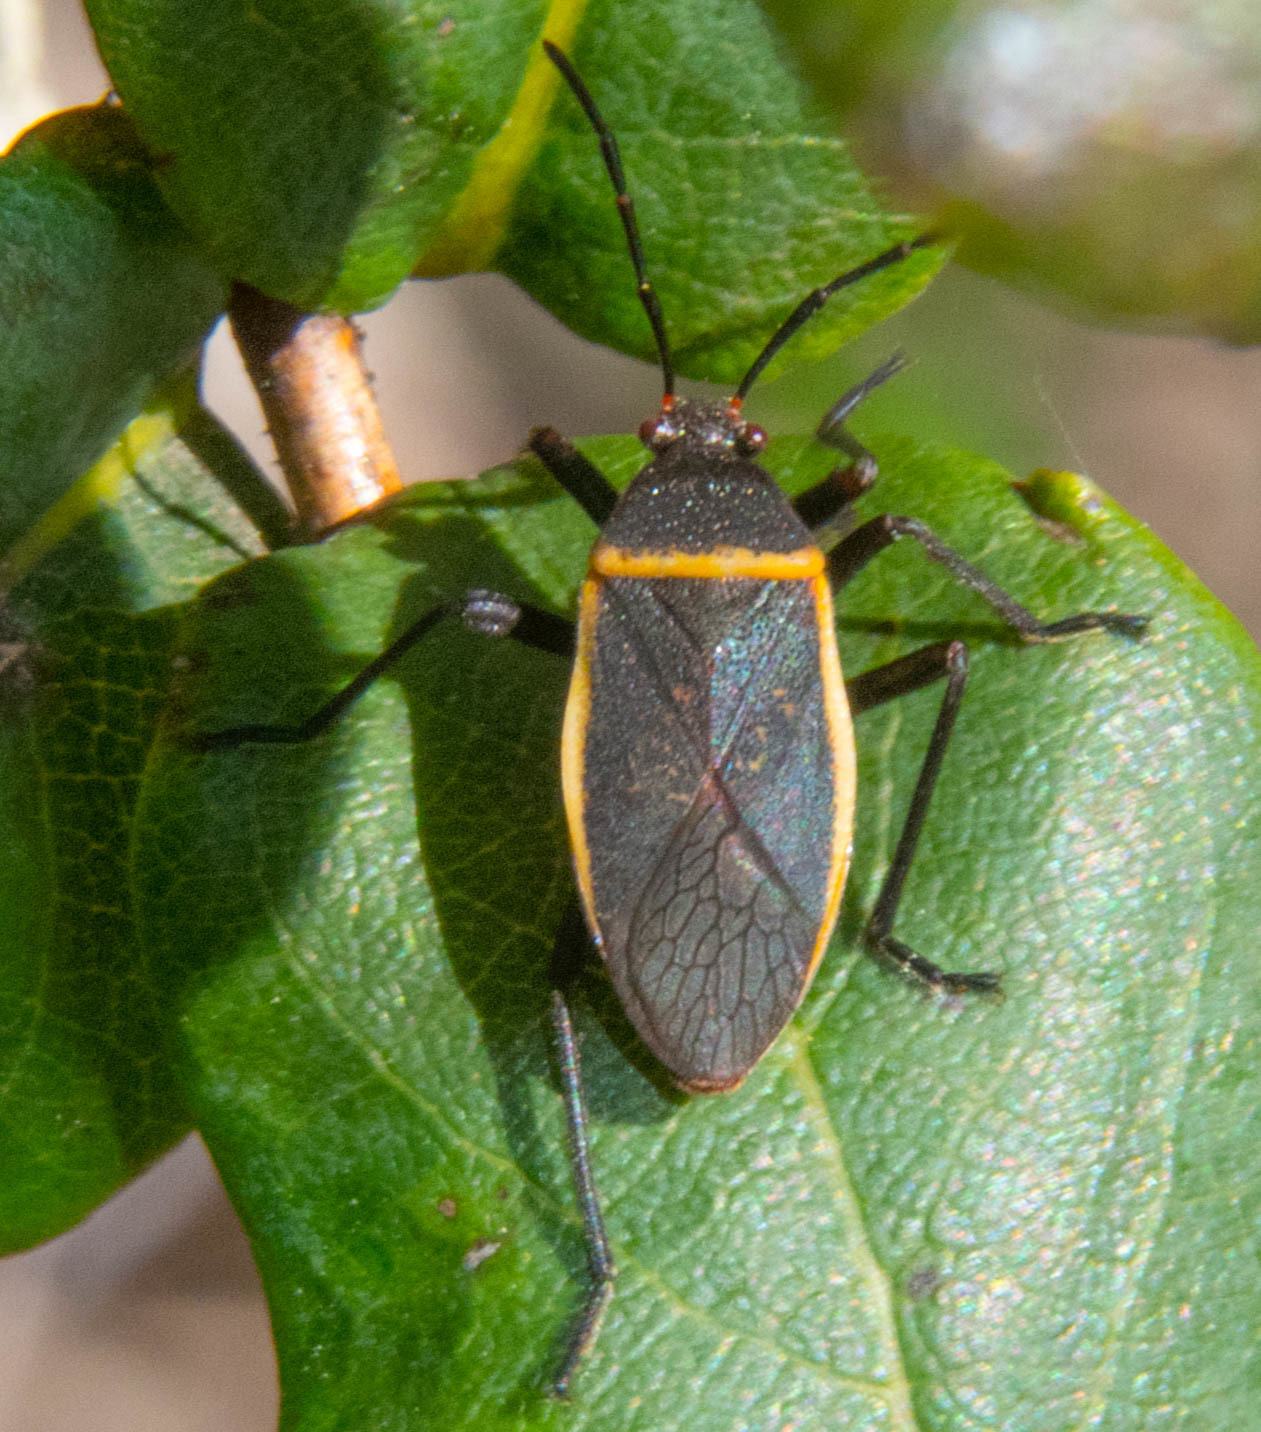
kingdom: Animalia
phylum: Arthropoda
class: Insecta
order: Hemiptera
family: Largidae
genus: Largus
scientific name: Largus californicus
